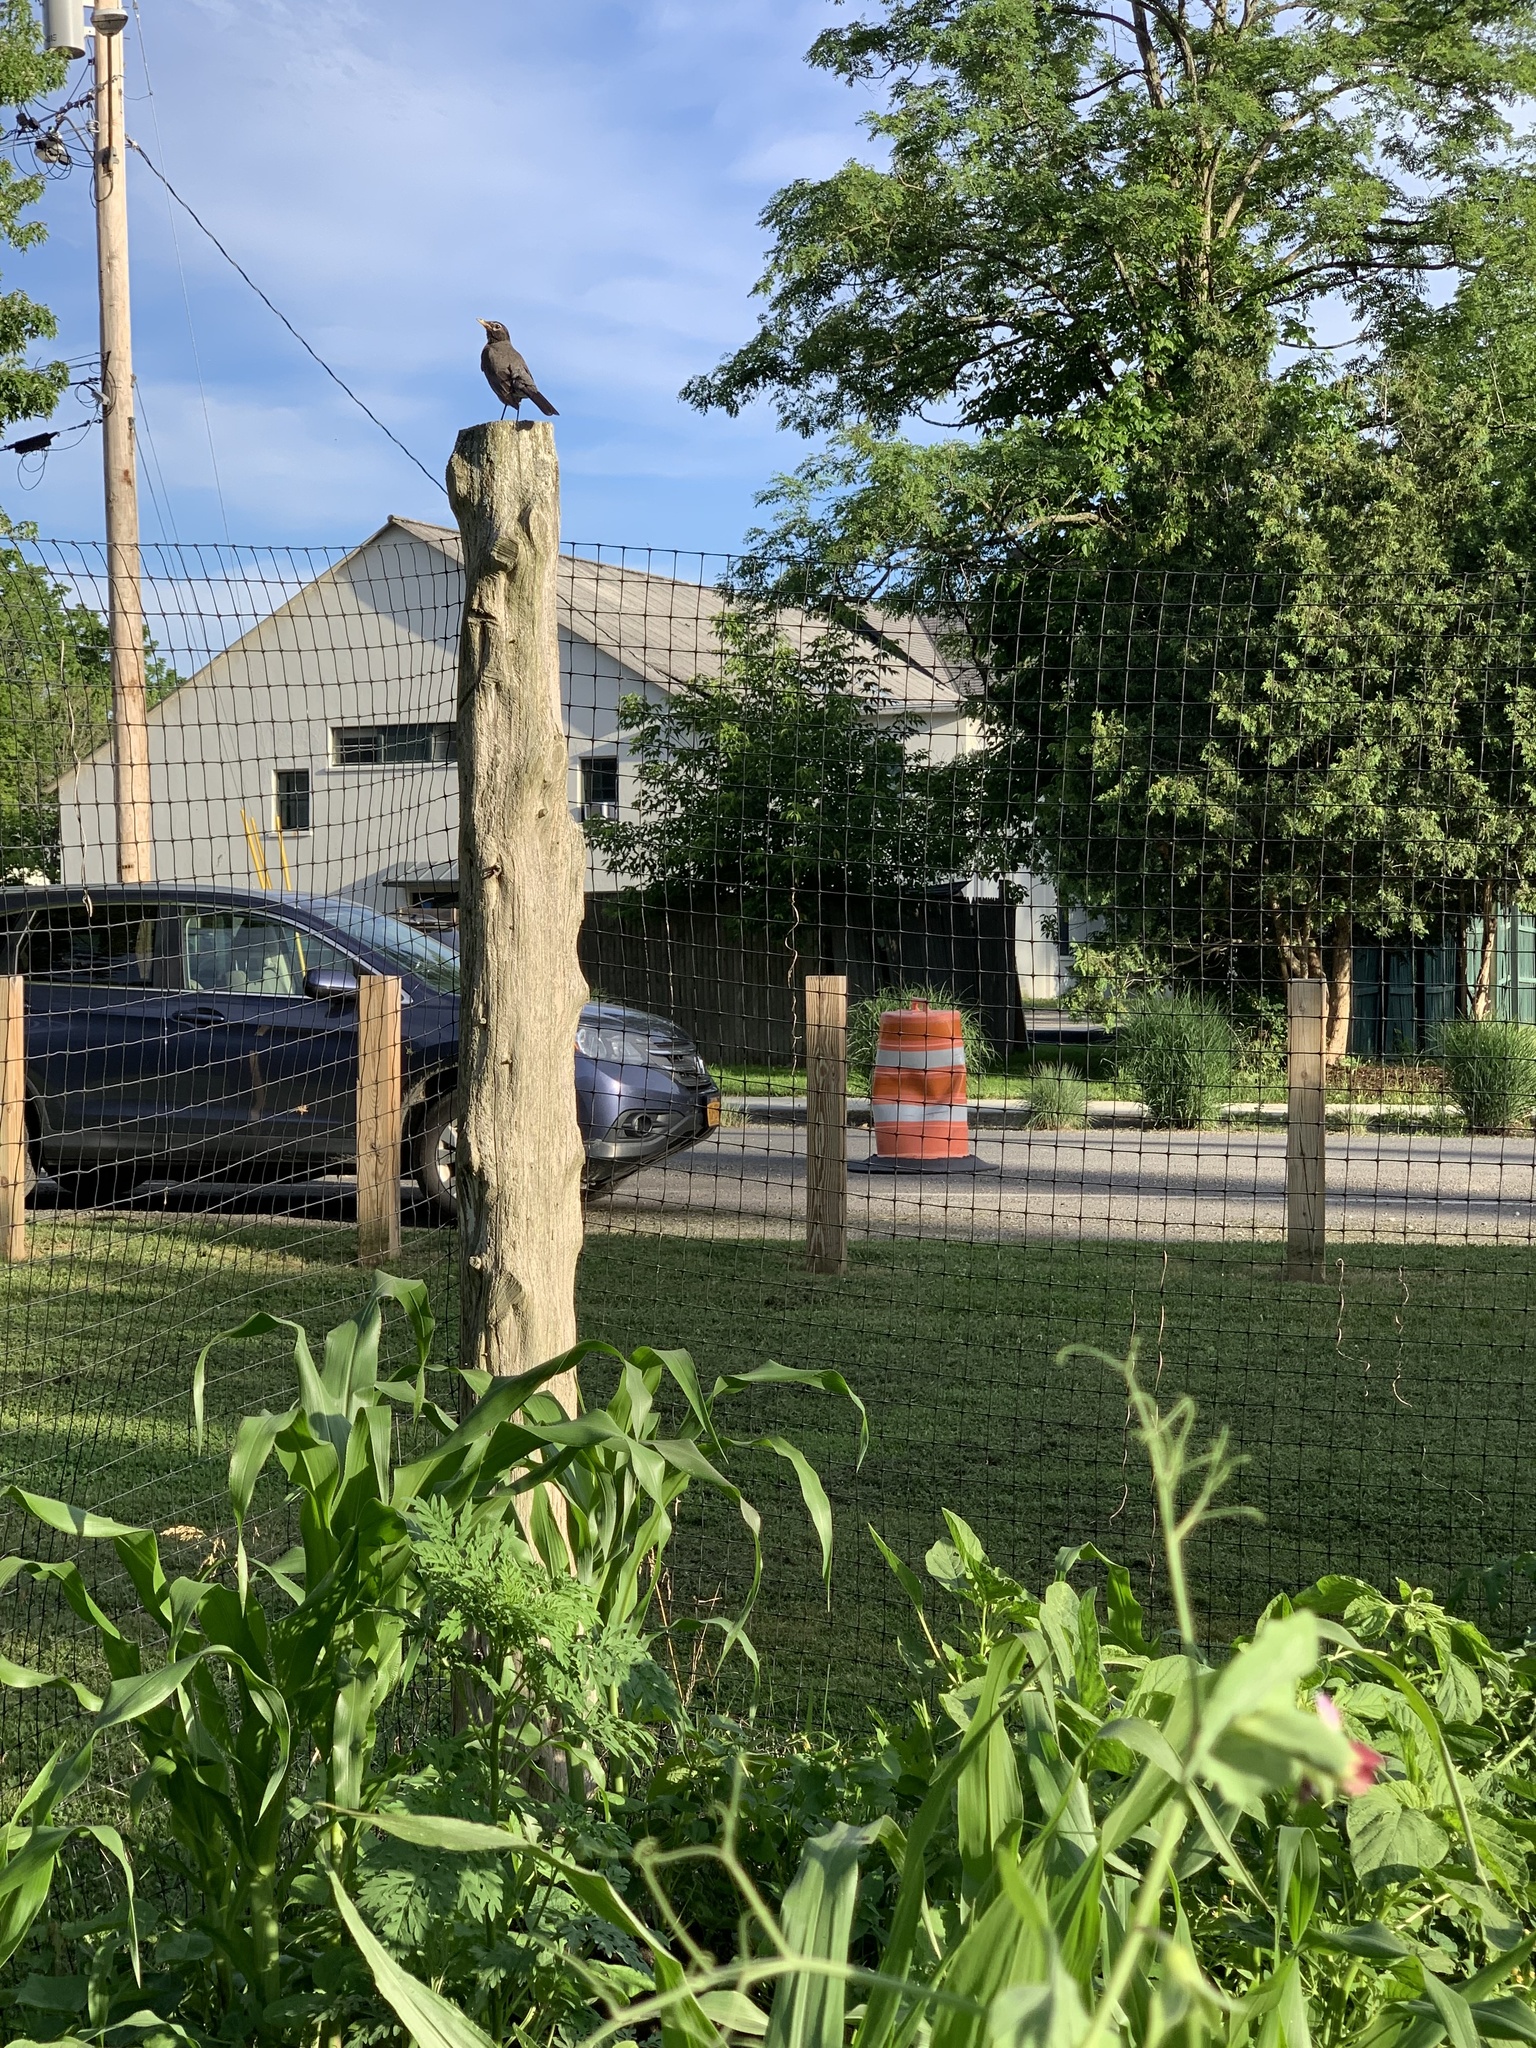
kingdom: Animalia
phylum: Chordata
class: Aves
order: Passeriformes
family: Turdidae
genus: Turdus
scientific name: Turdus migratorius
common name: American robin
